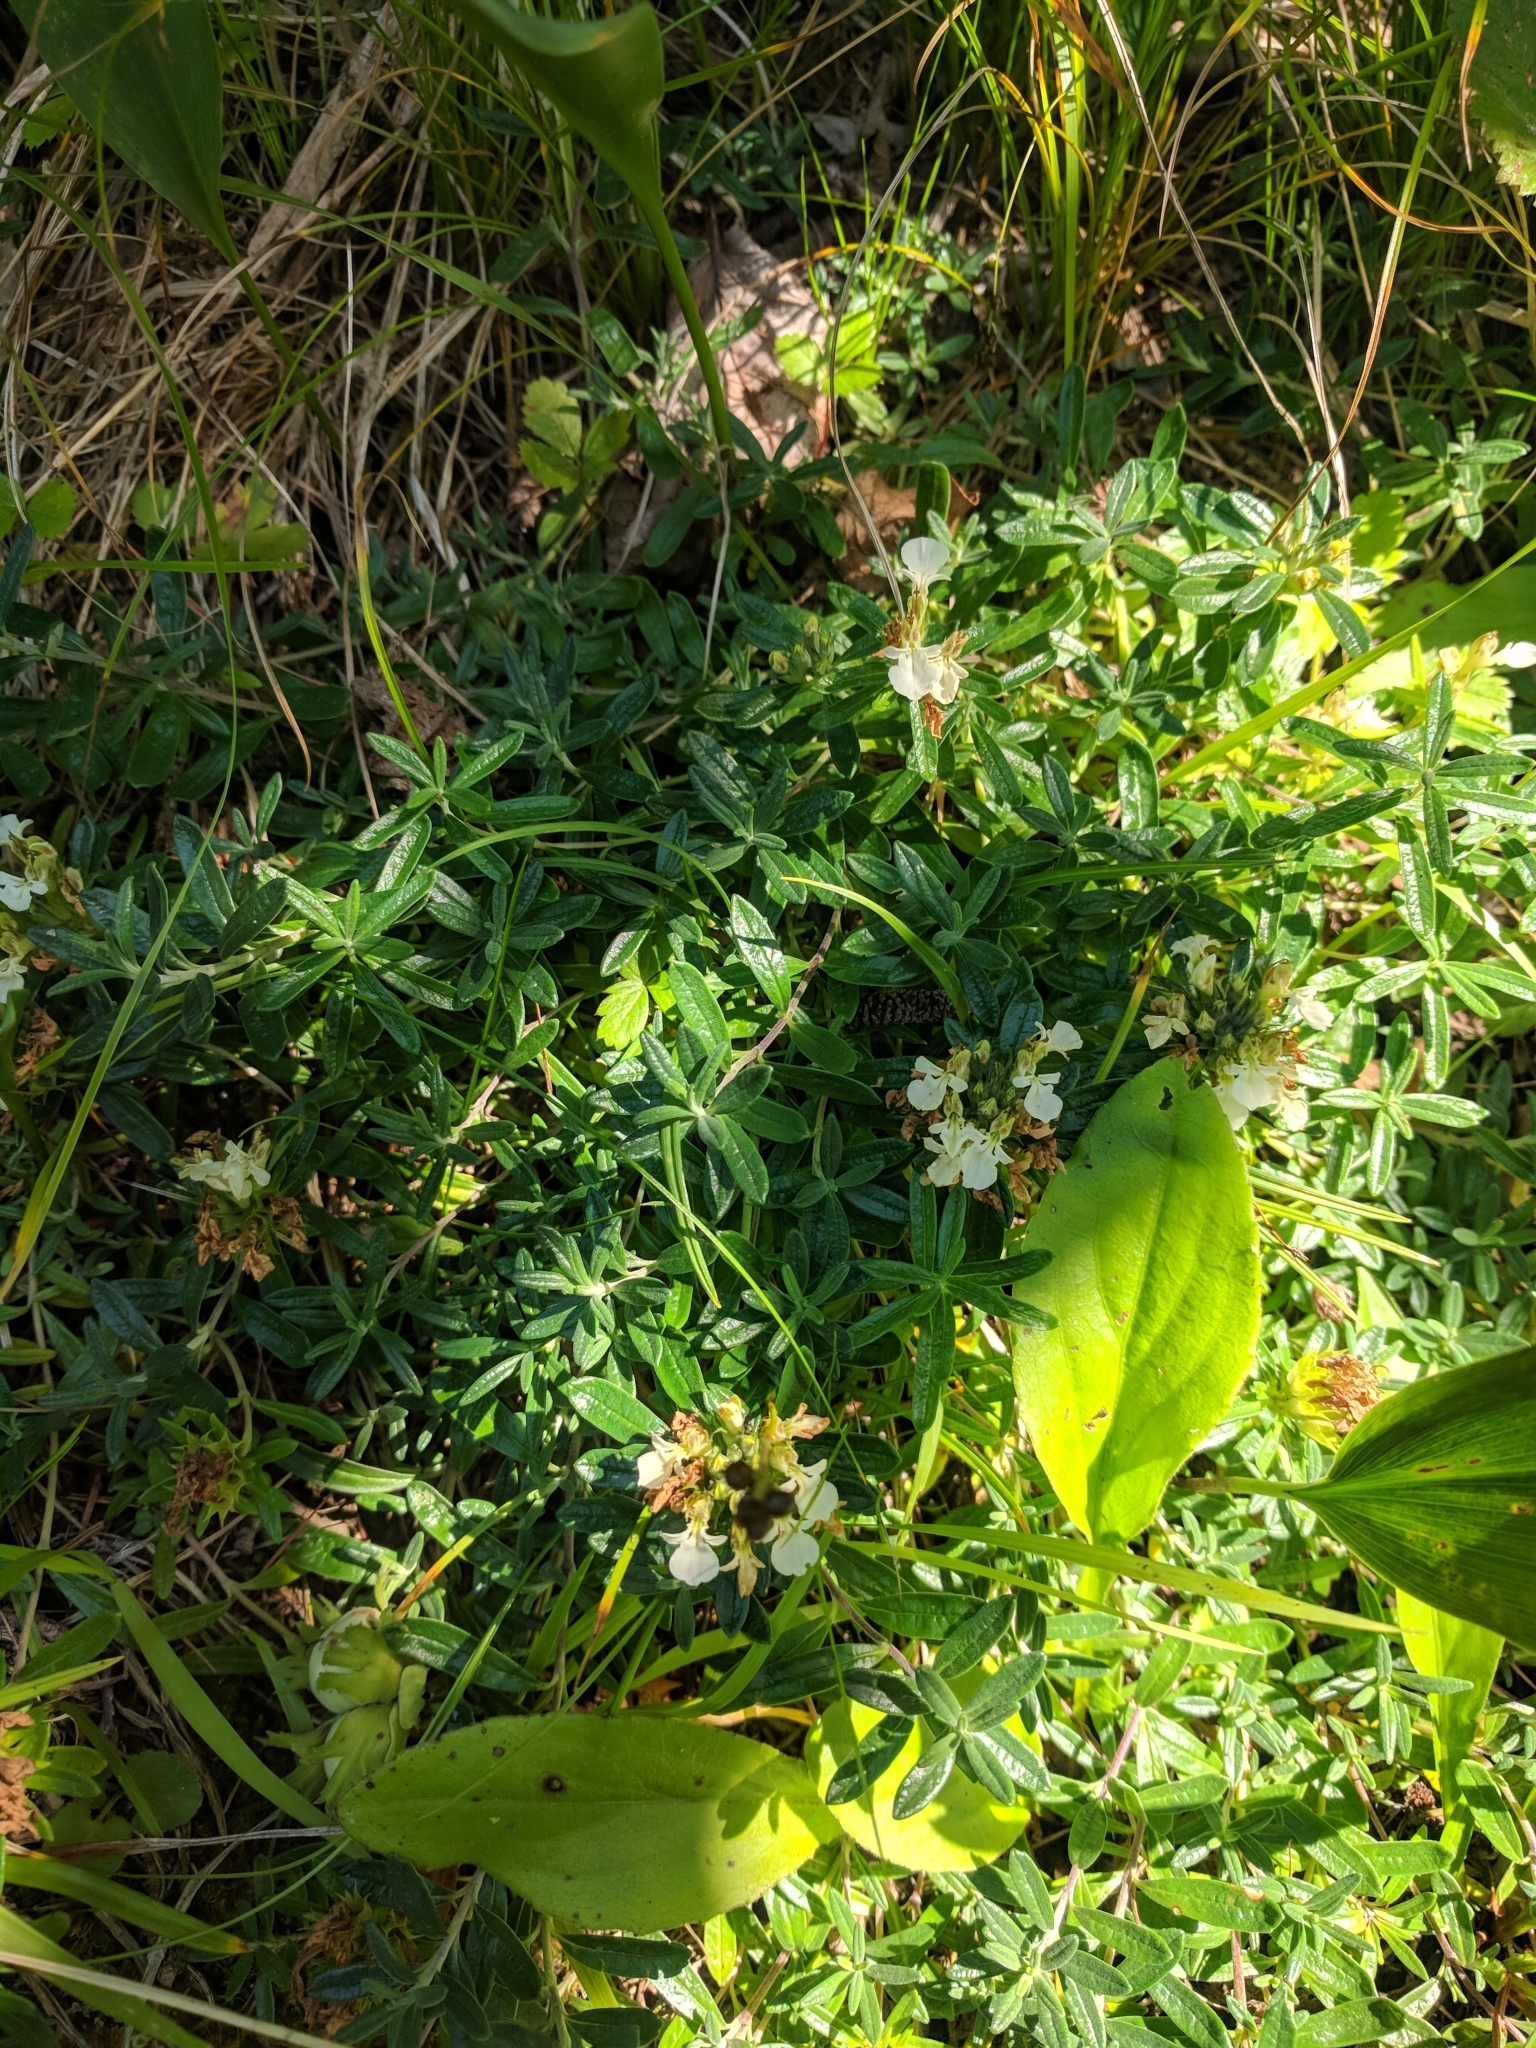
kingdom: Plantae
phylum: Tracheophyta
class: Magnoliopsida
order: Lamiales
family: Lamiaceae
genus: Teucrium
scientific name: Teucrium montanum
